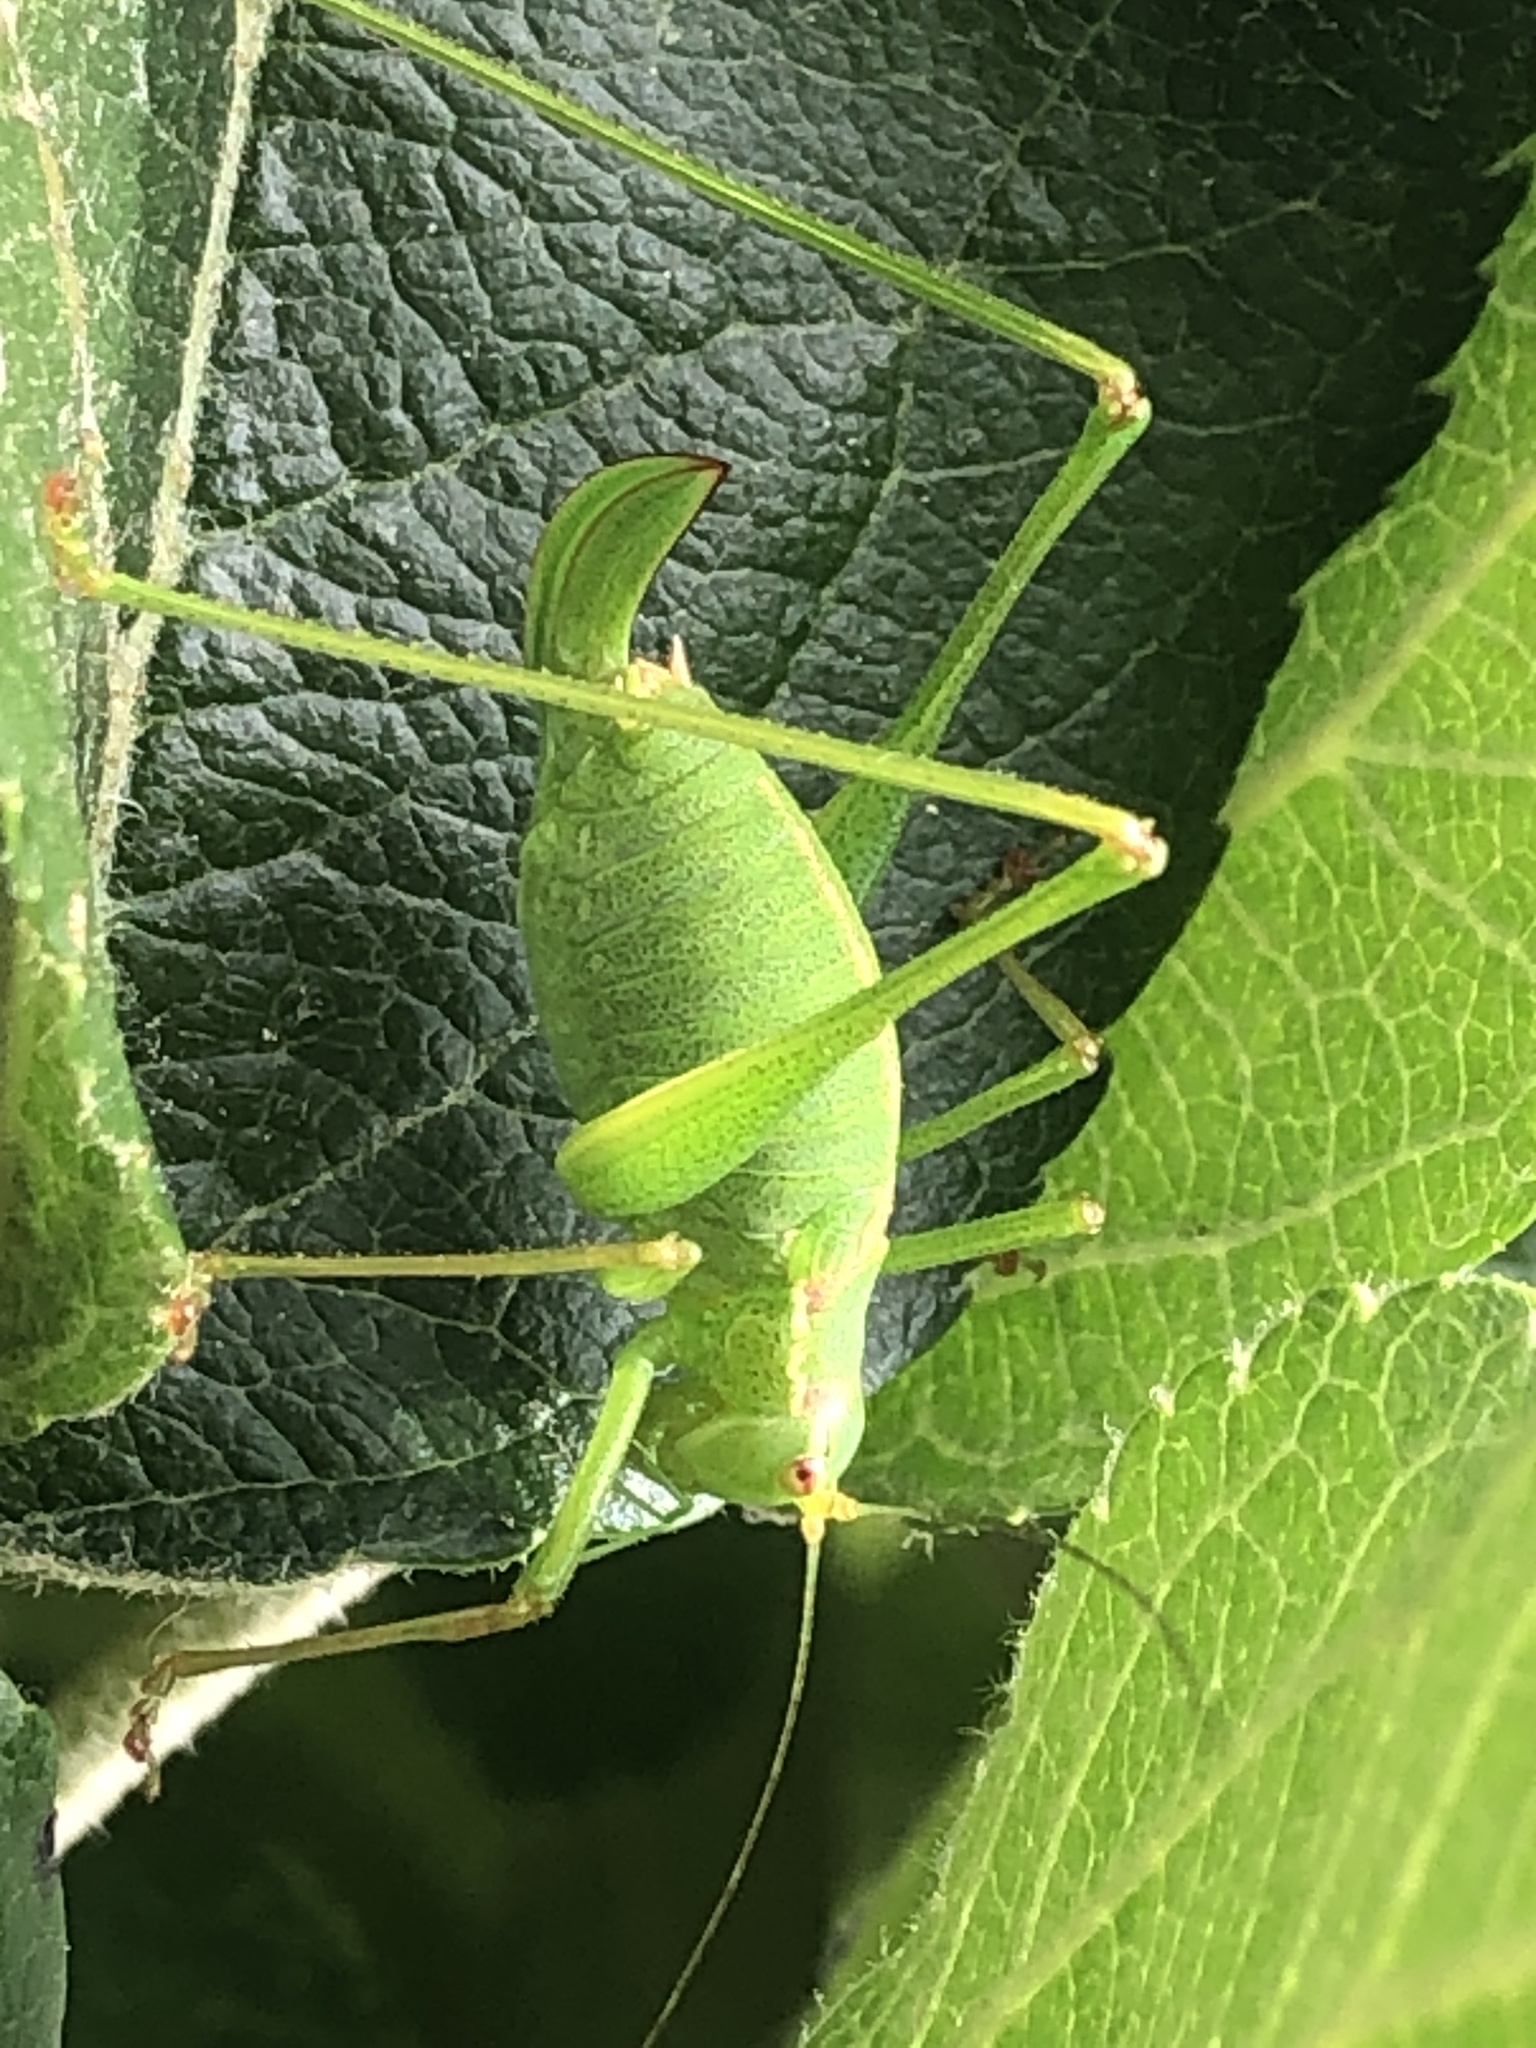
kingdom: Animalia
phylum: Arthropoda
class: Insecta
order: Orthoptera
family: Tettigoniidae
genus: Leptophyes
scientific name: Leptophyes punctatissima
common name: Speckled bush-cricket
